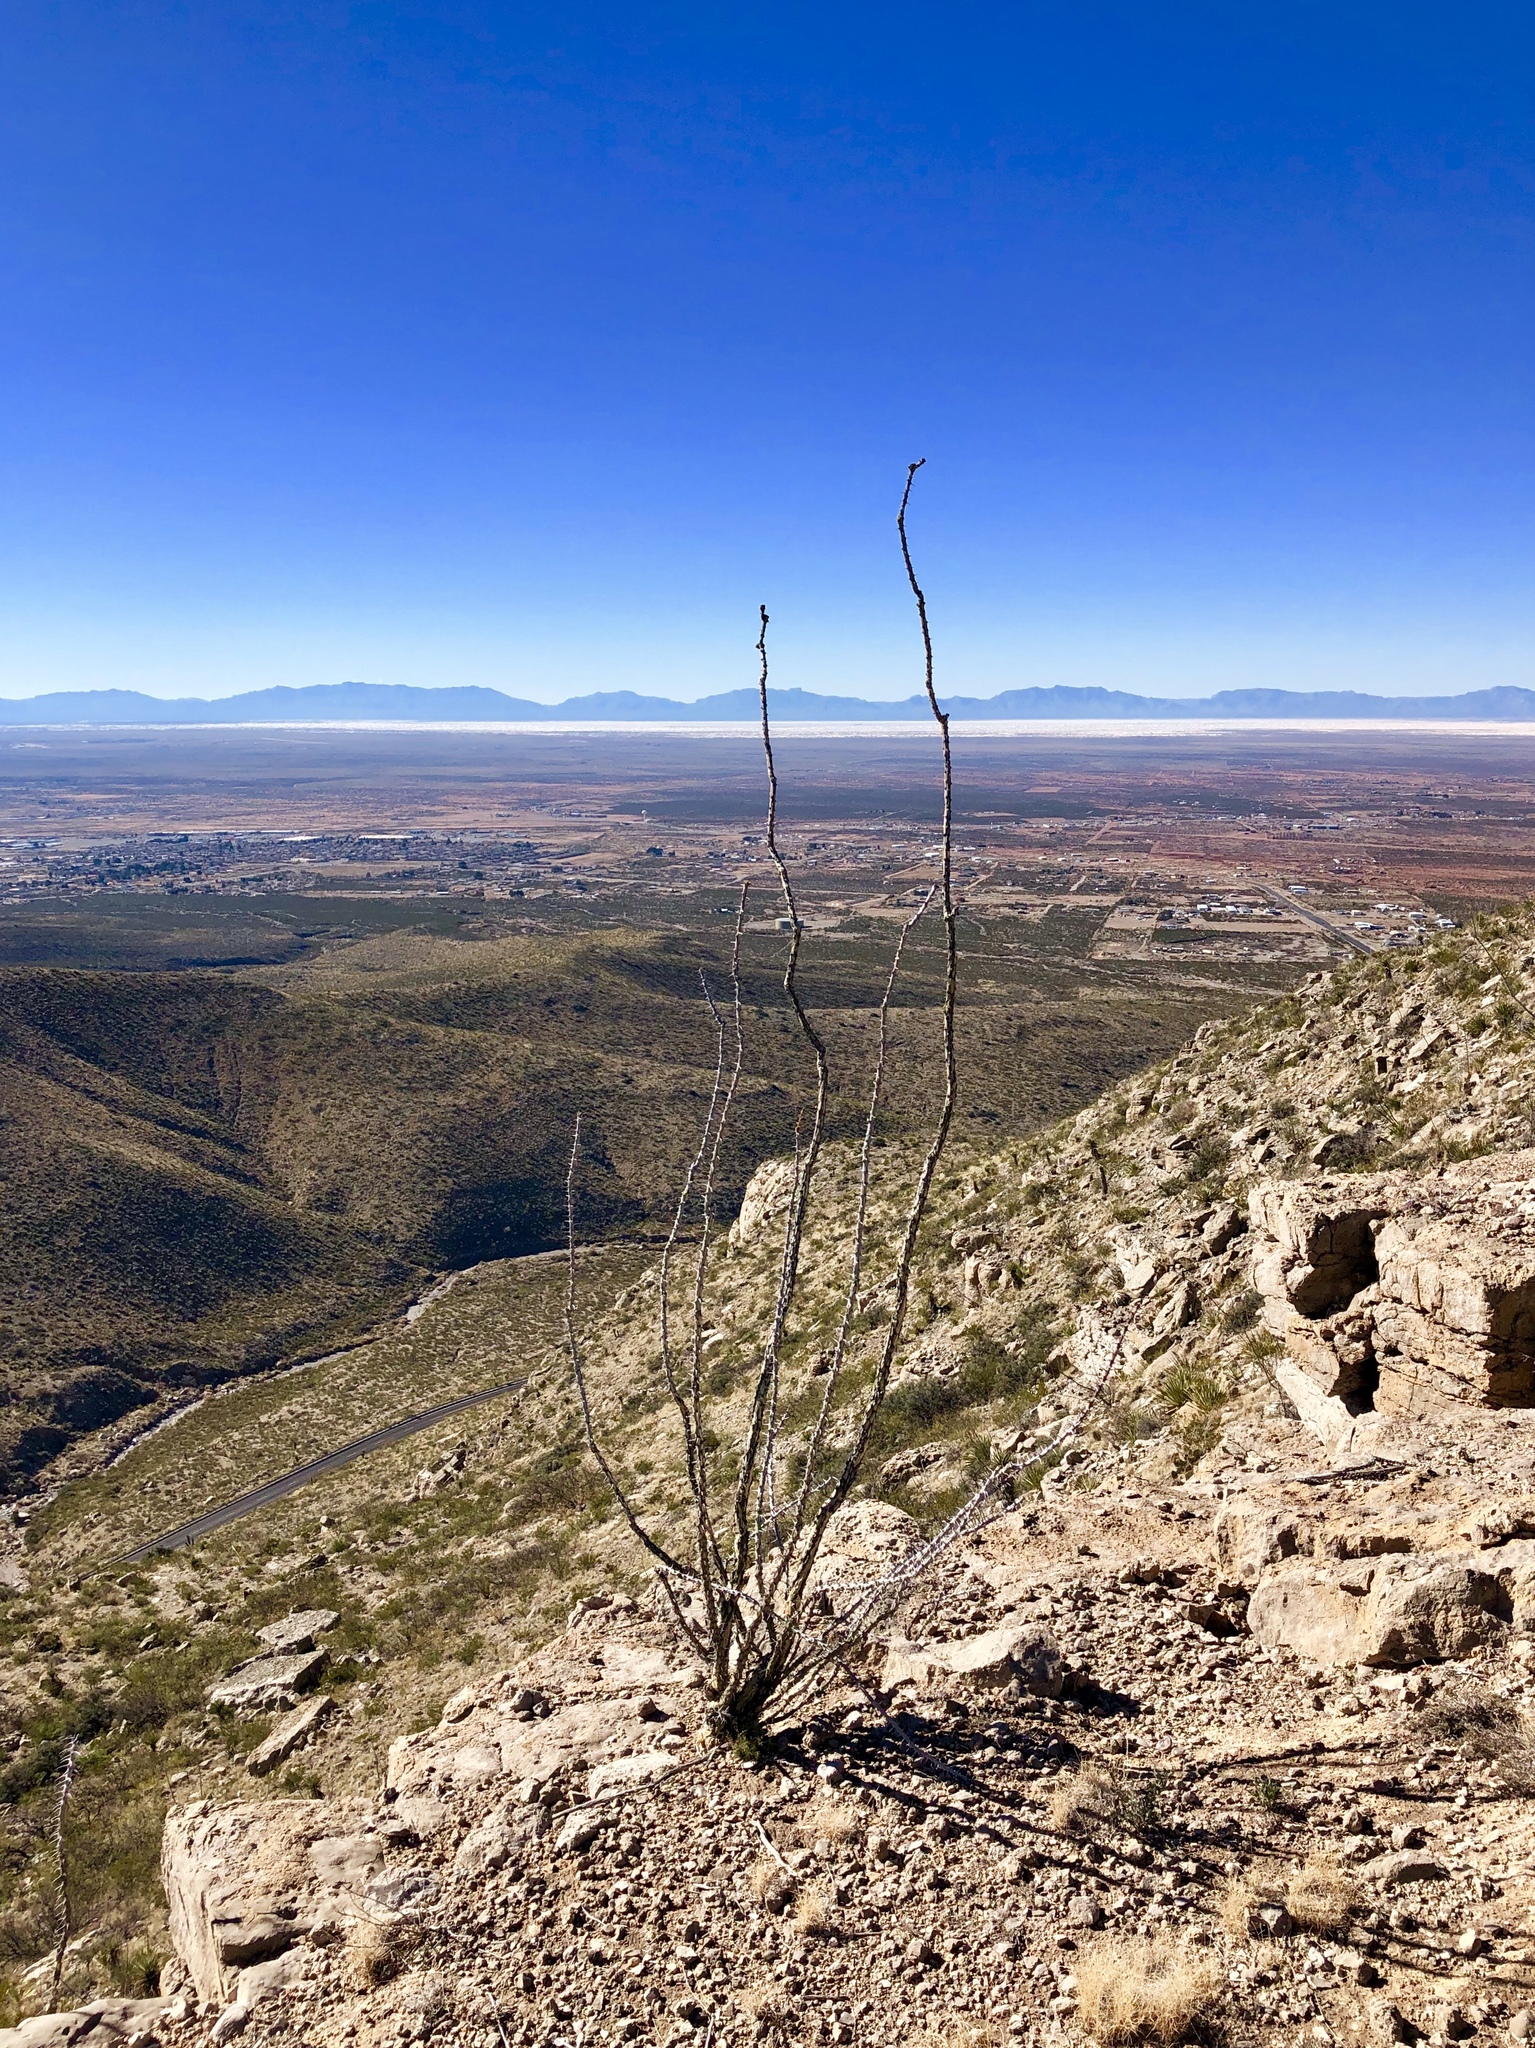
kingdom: Plantae
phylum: Tracheophyta
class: Magnoliopsida
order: Ericales
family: Fouquieriaceae
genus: Fouquieria
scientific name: Fouquieria splendens
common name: Vine-cactus
